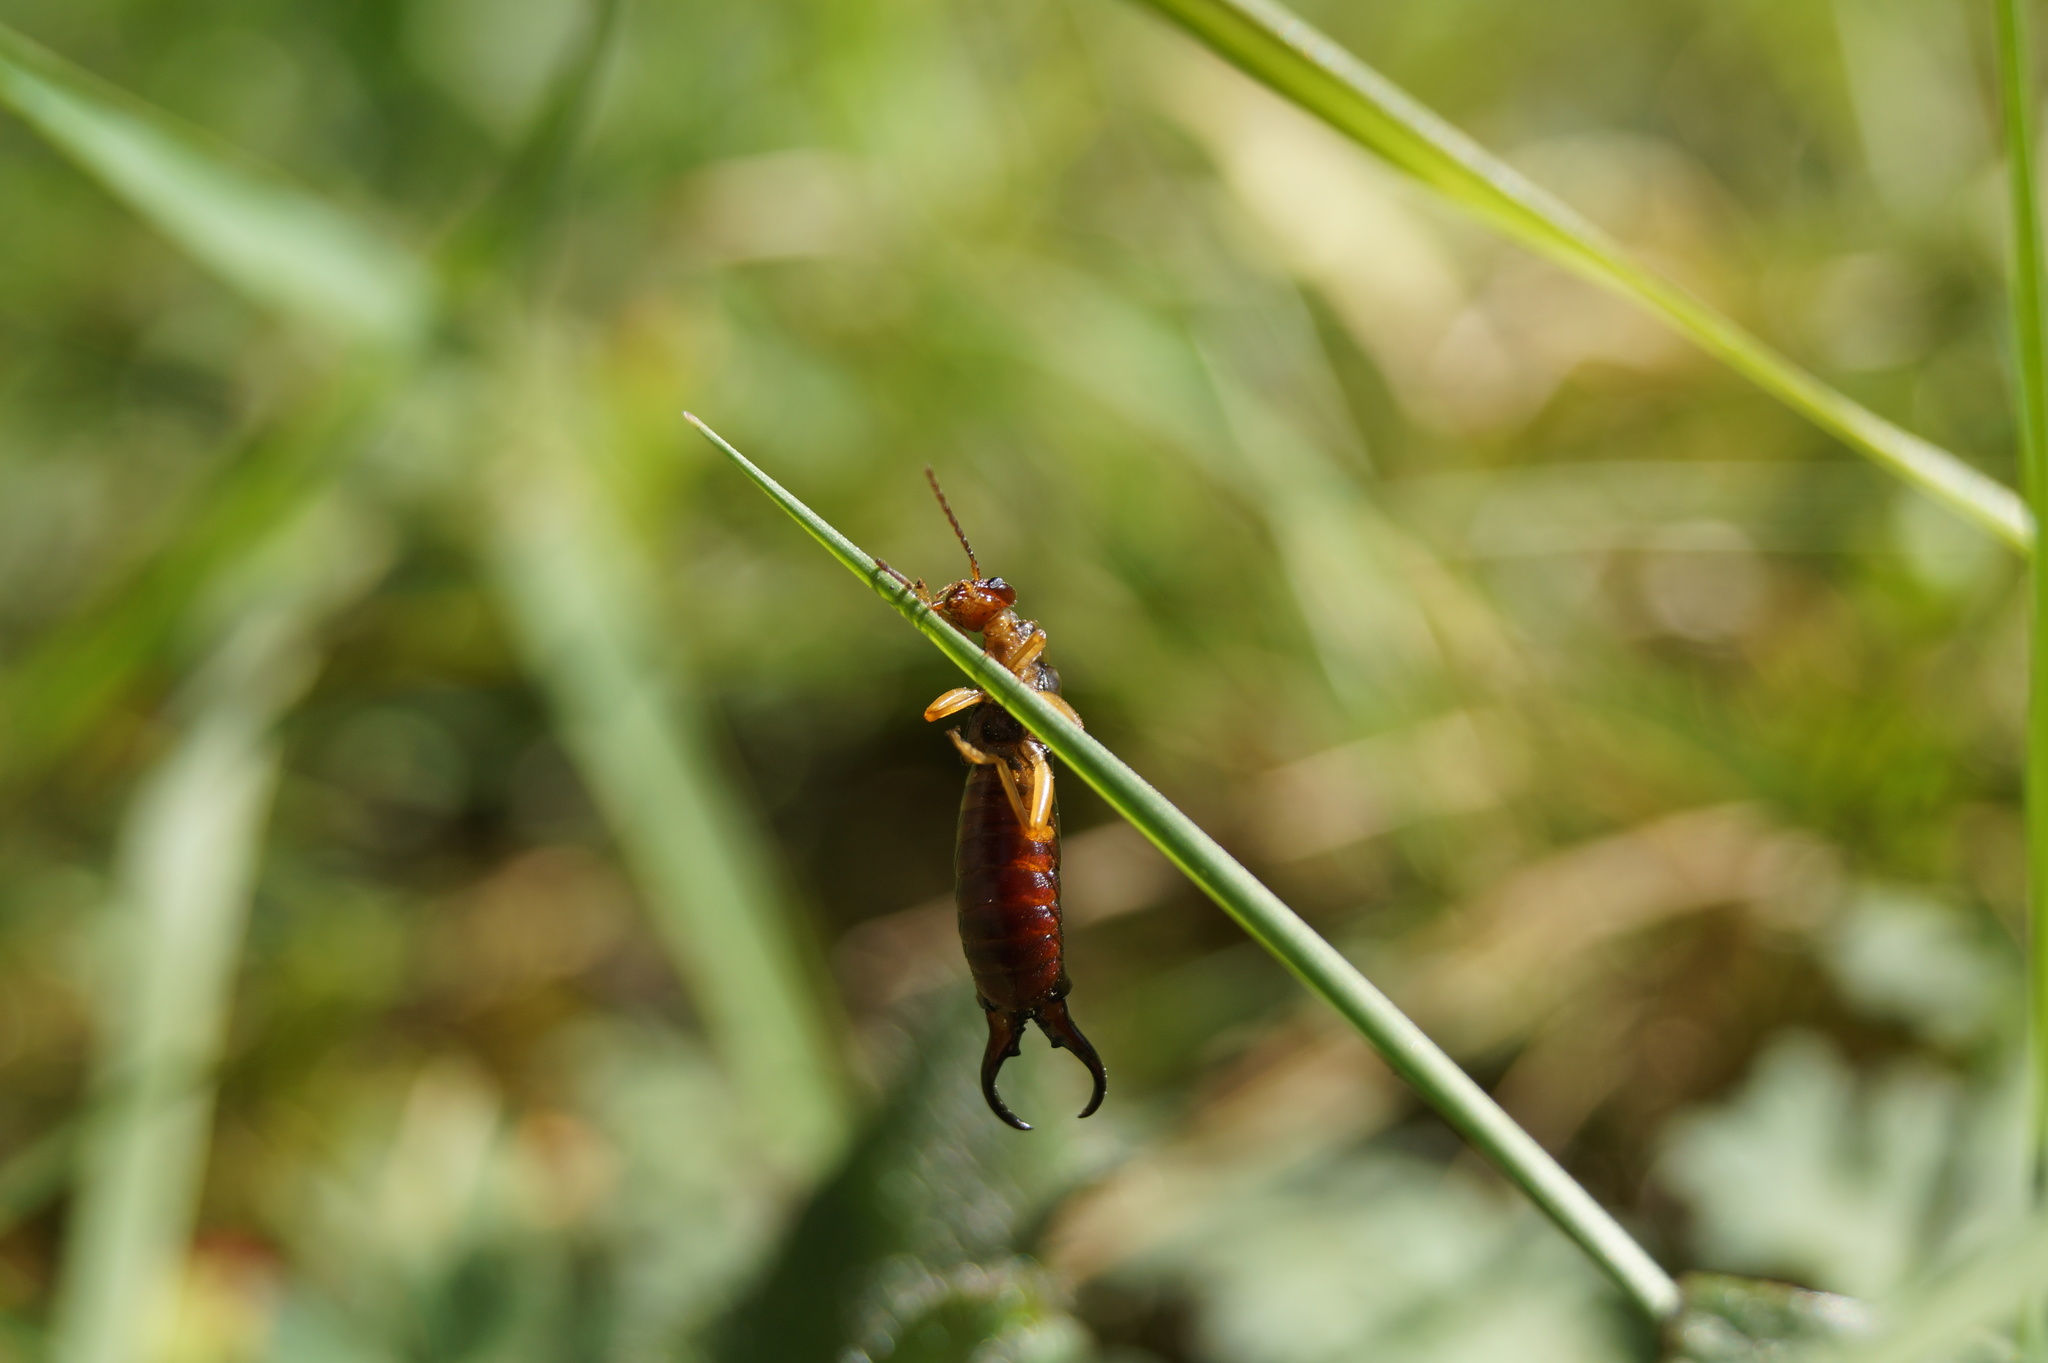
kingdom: Animalia
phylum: Arthropoda
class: Insecta
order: Dermaptera
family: Forficulidae
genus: Forficula
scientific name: Forficula
